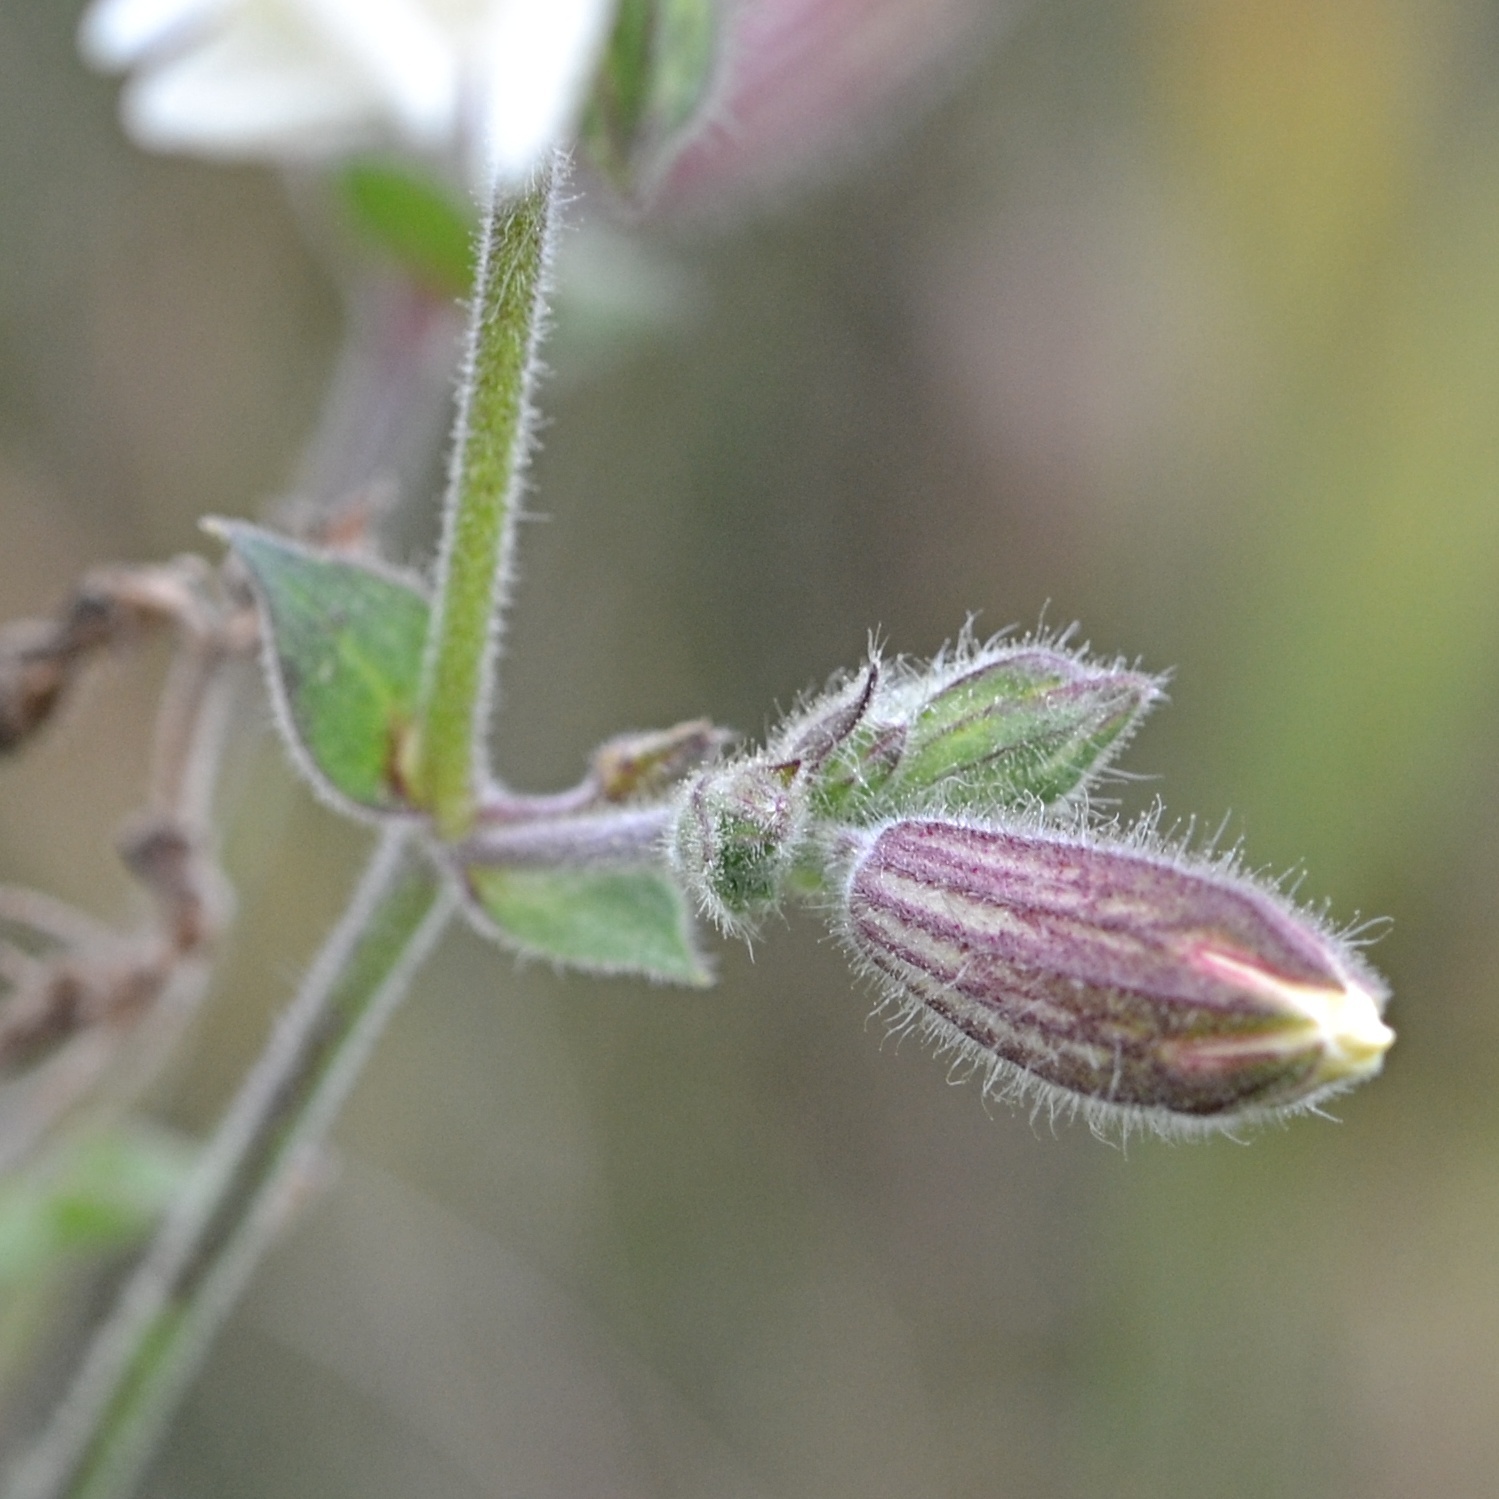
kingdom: Plantae
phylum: Tracheophyta
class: Magnoliopsida
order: Caryophyllales
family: Caryophyllaceae
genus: Silene
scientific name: Silene latifolia
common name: White campion
